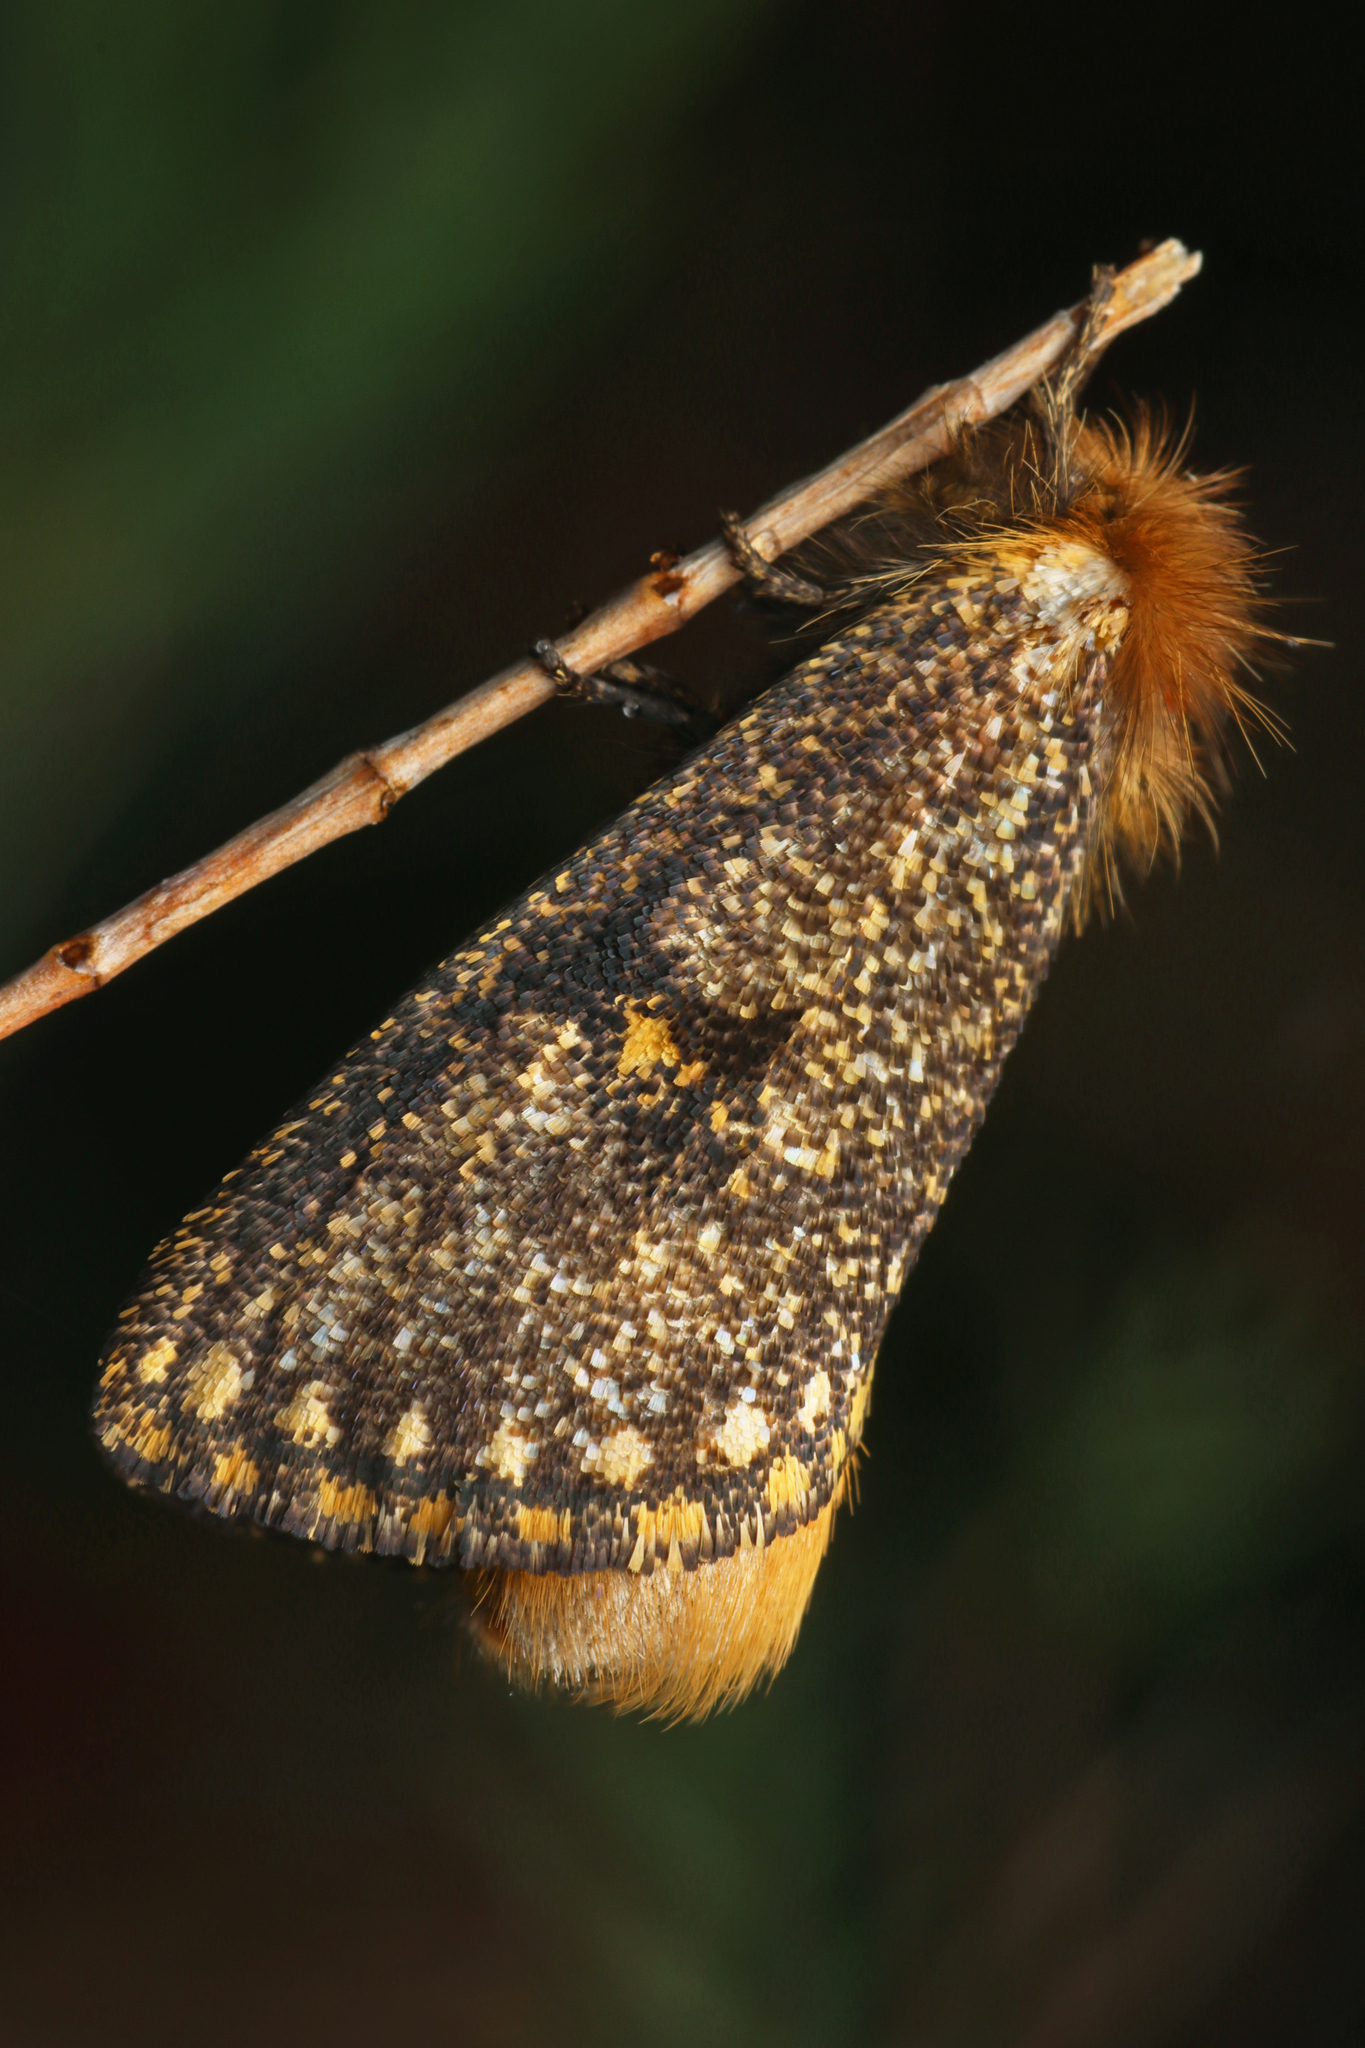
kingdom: Animalia
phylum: Arthropoda
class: Insecta
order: Lepidoptera
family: Notodontidae
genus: Epicoma
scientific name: Epicoma contristis
